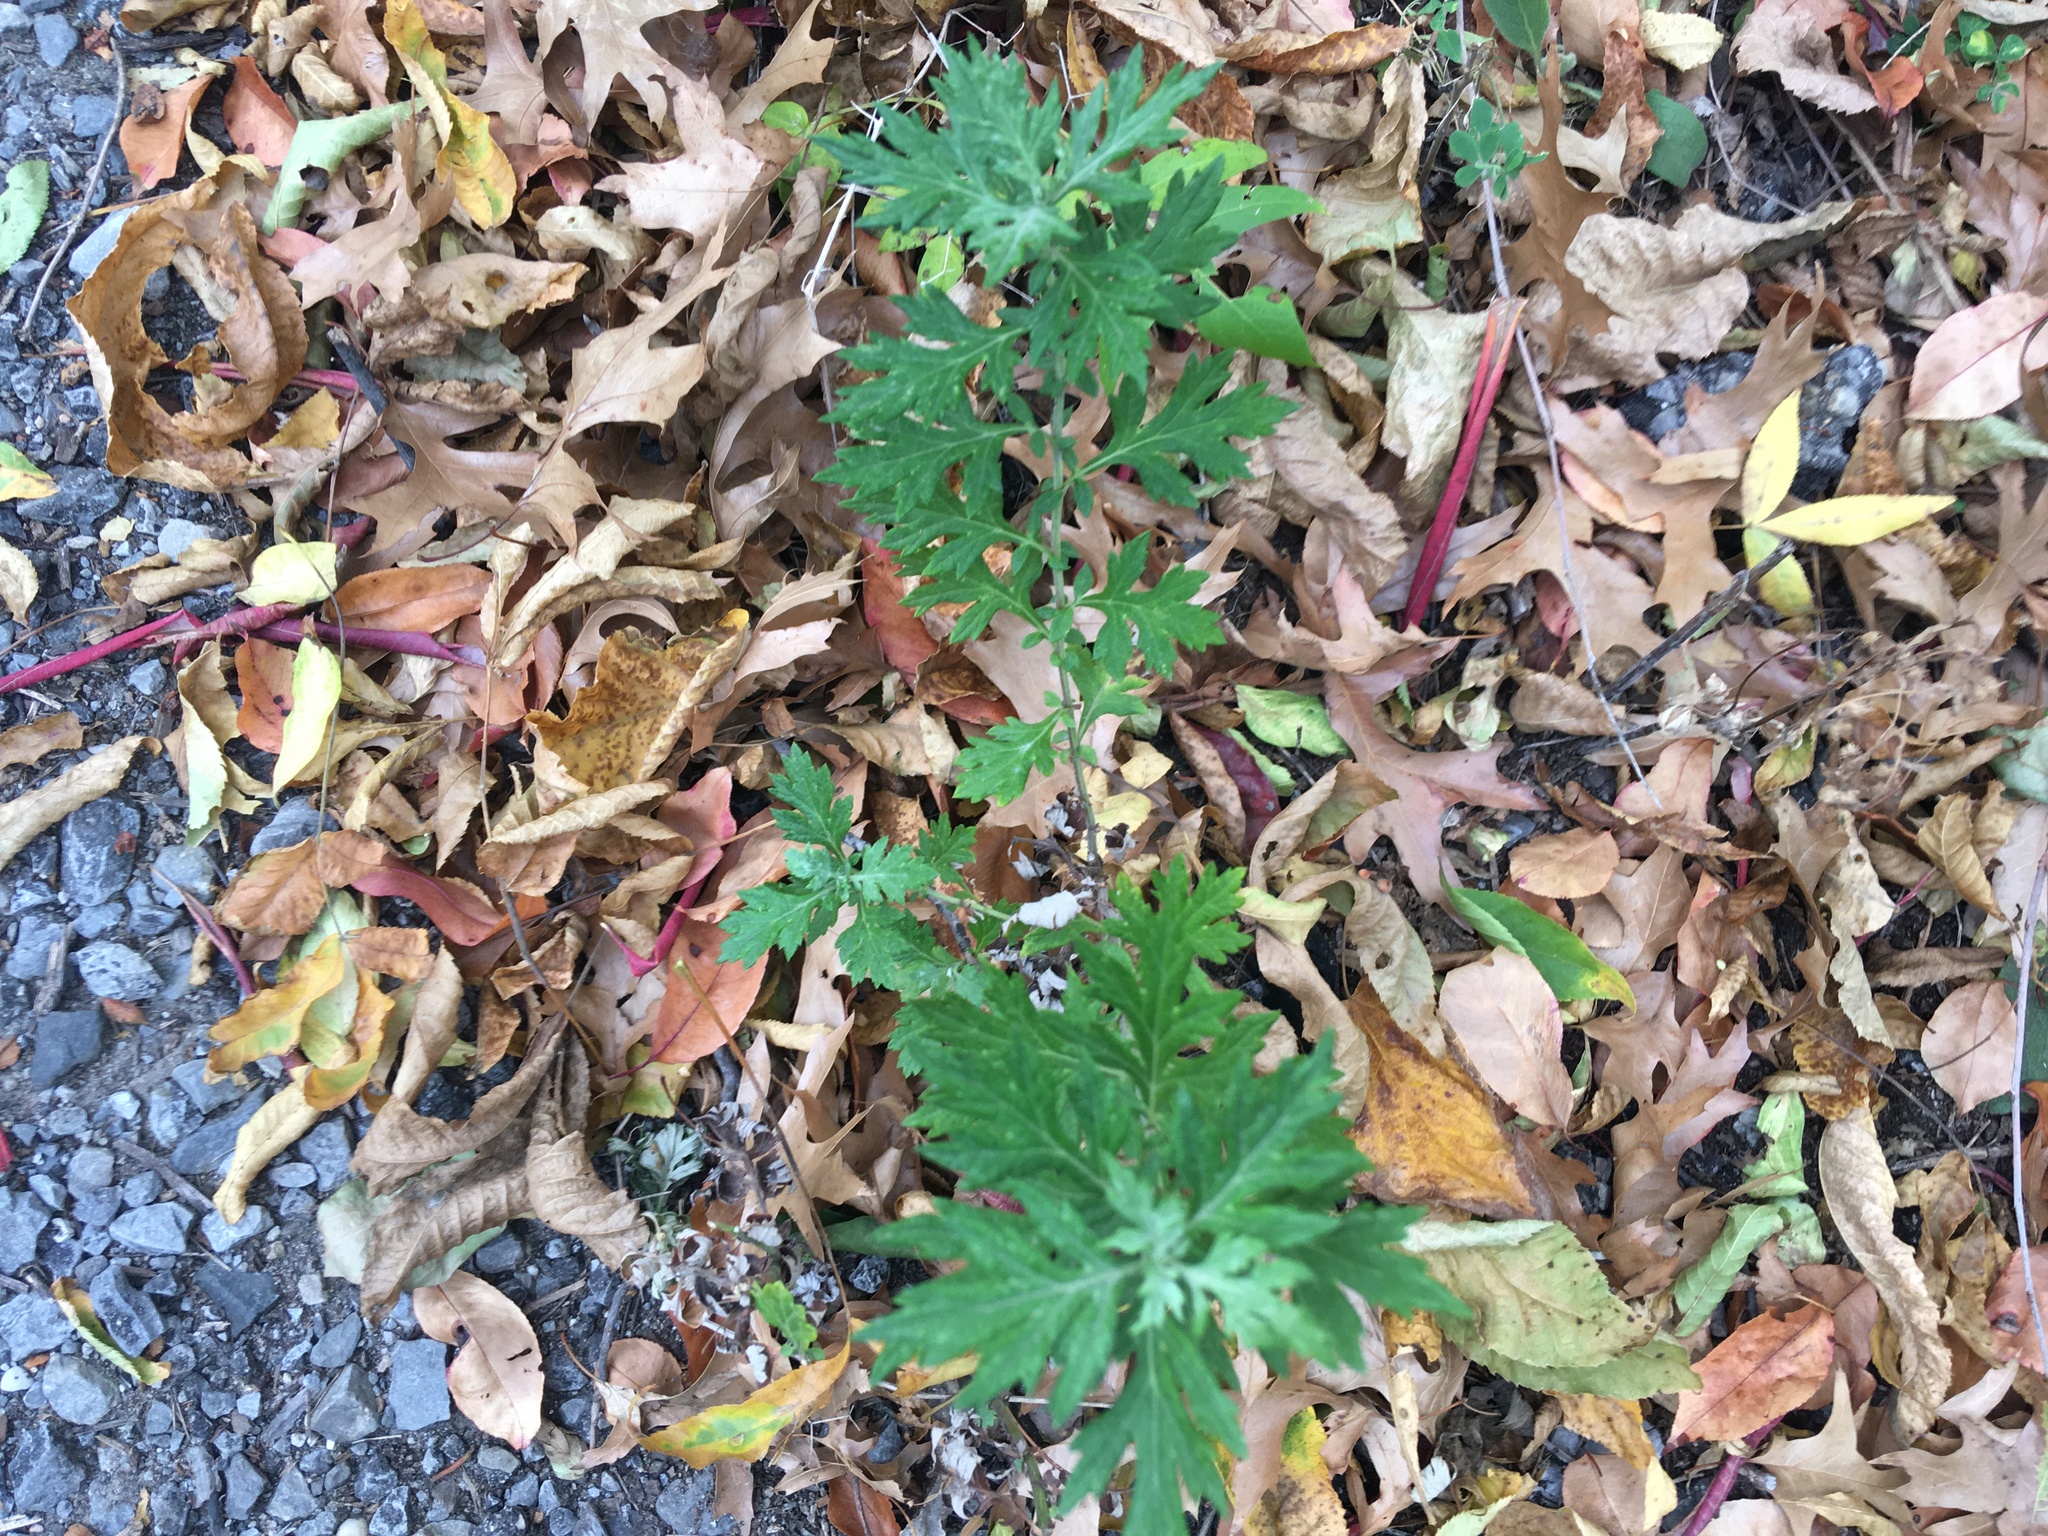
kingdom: Plantae
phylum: Tracheophyta
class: Magnoliopsida
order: Asterales
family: Asteraceae
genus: Artemisia
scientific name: Artemisia vulgaris
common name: Mugwort
